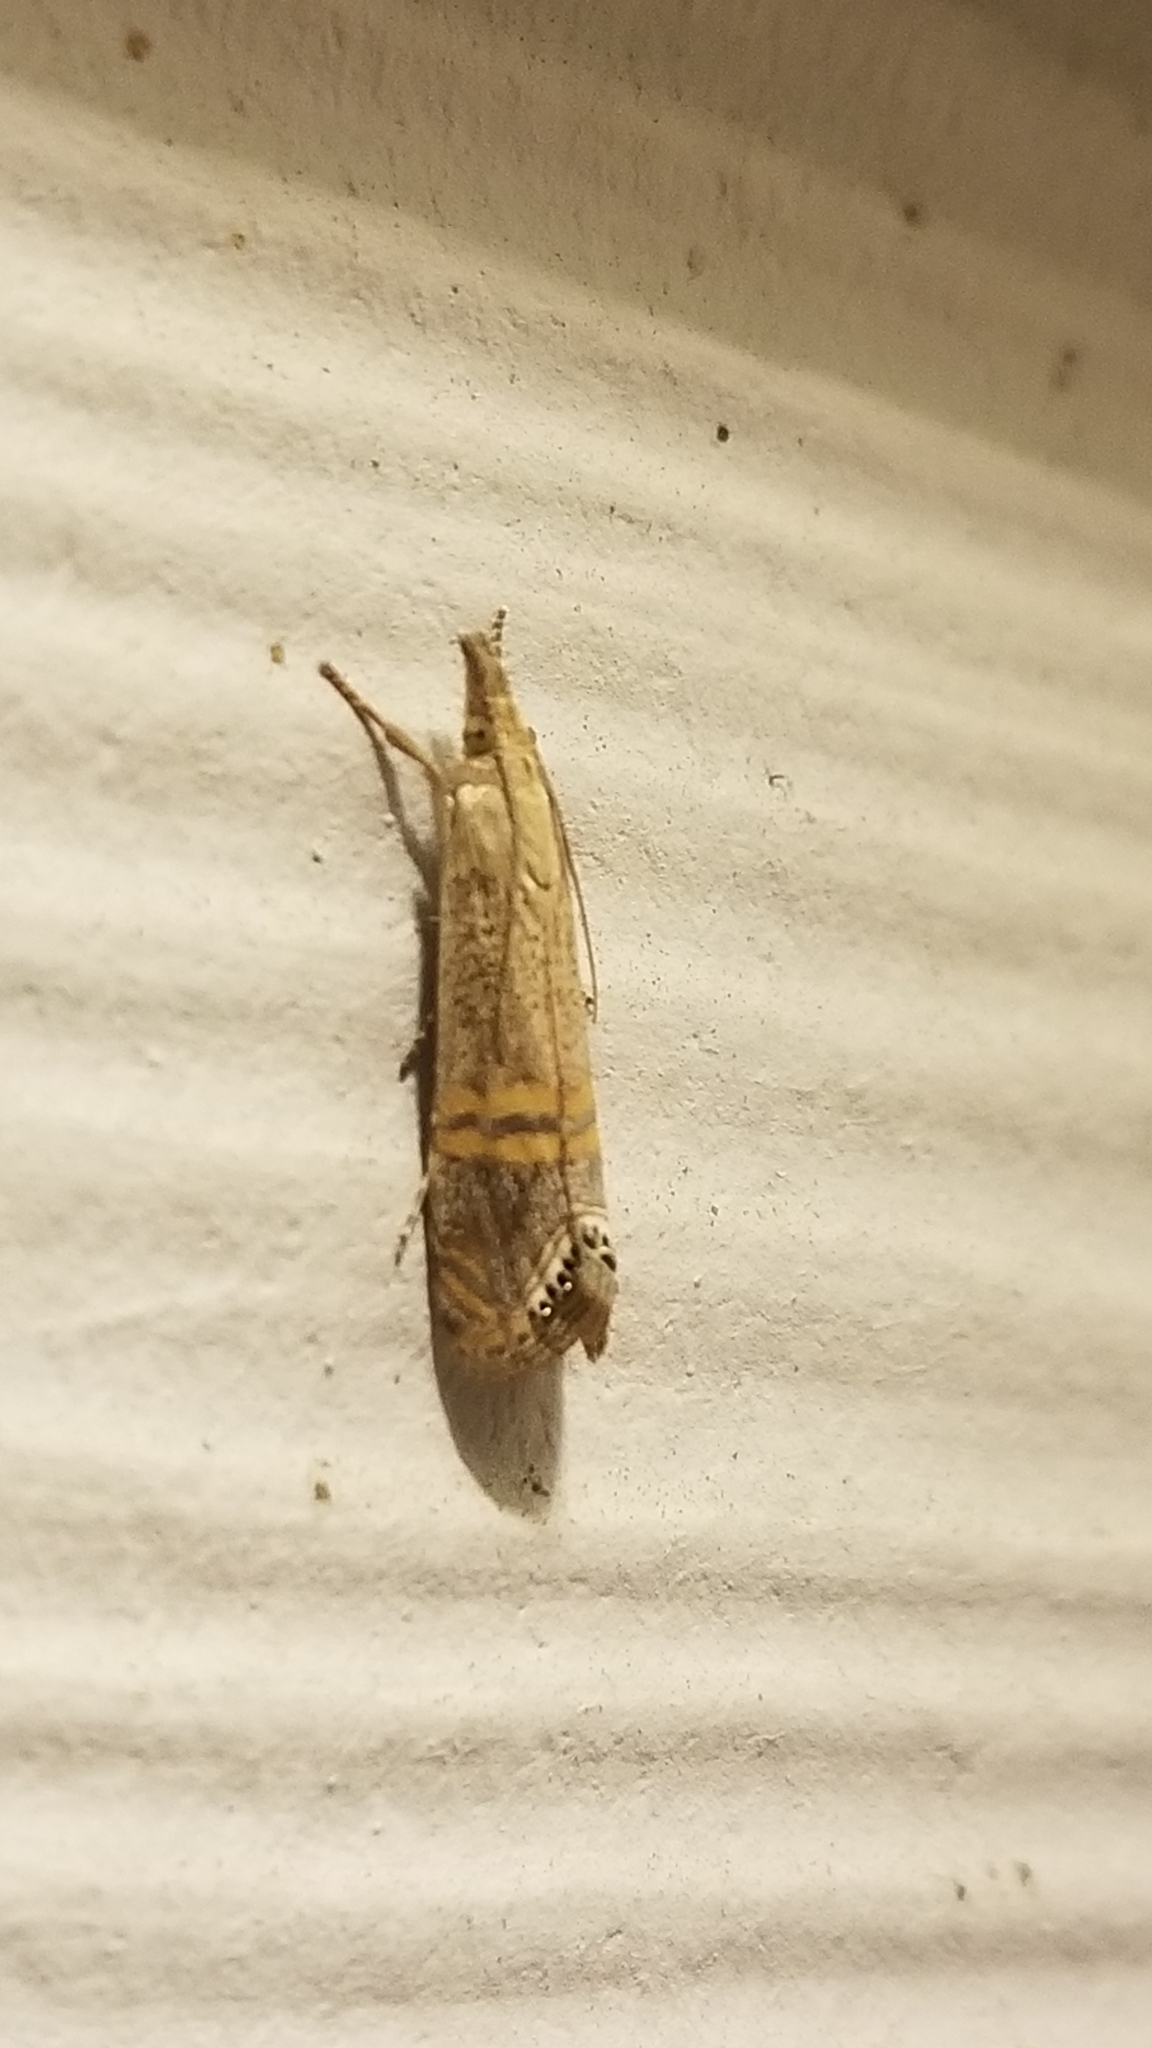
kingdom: Animalia
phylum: Arthropoda
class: Insecta
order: Lepidoptera
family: Crambidae
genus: Euchromius
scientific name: Euchromius ocellea
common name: Necklace veneer moth
